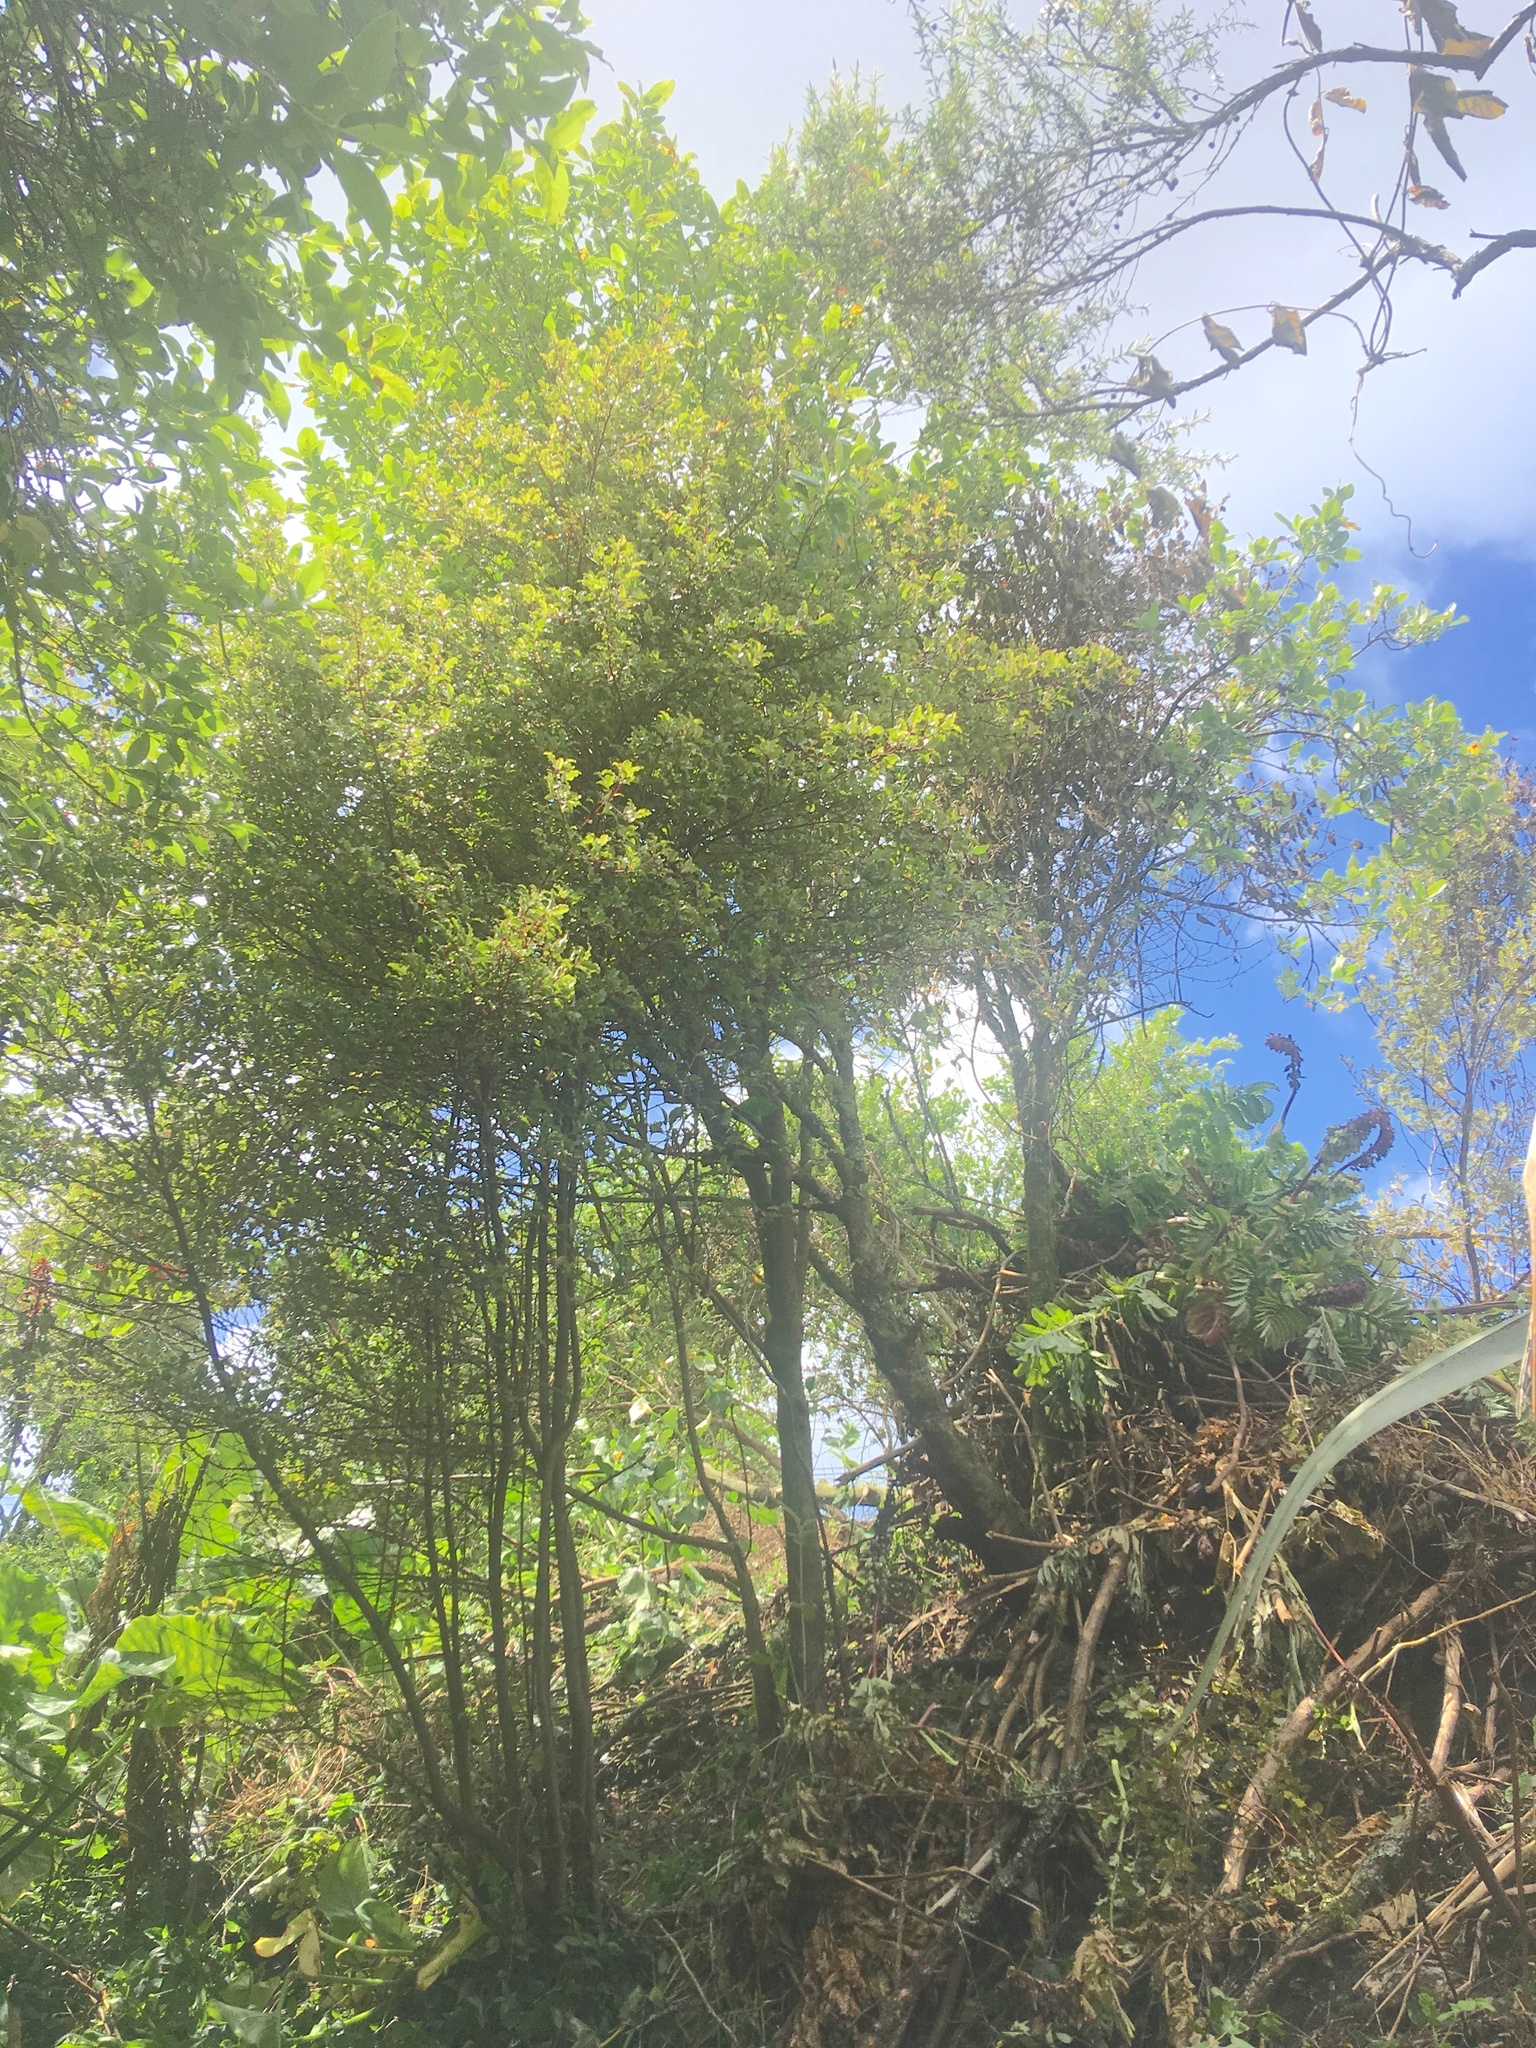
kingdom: Plantae
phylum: Tracheophyta
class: Magnoliopsida
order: Ericales
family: Primulaceae
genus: Myrsine
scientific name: Myrsine australis
